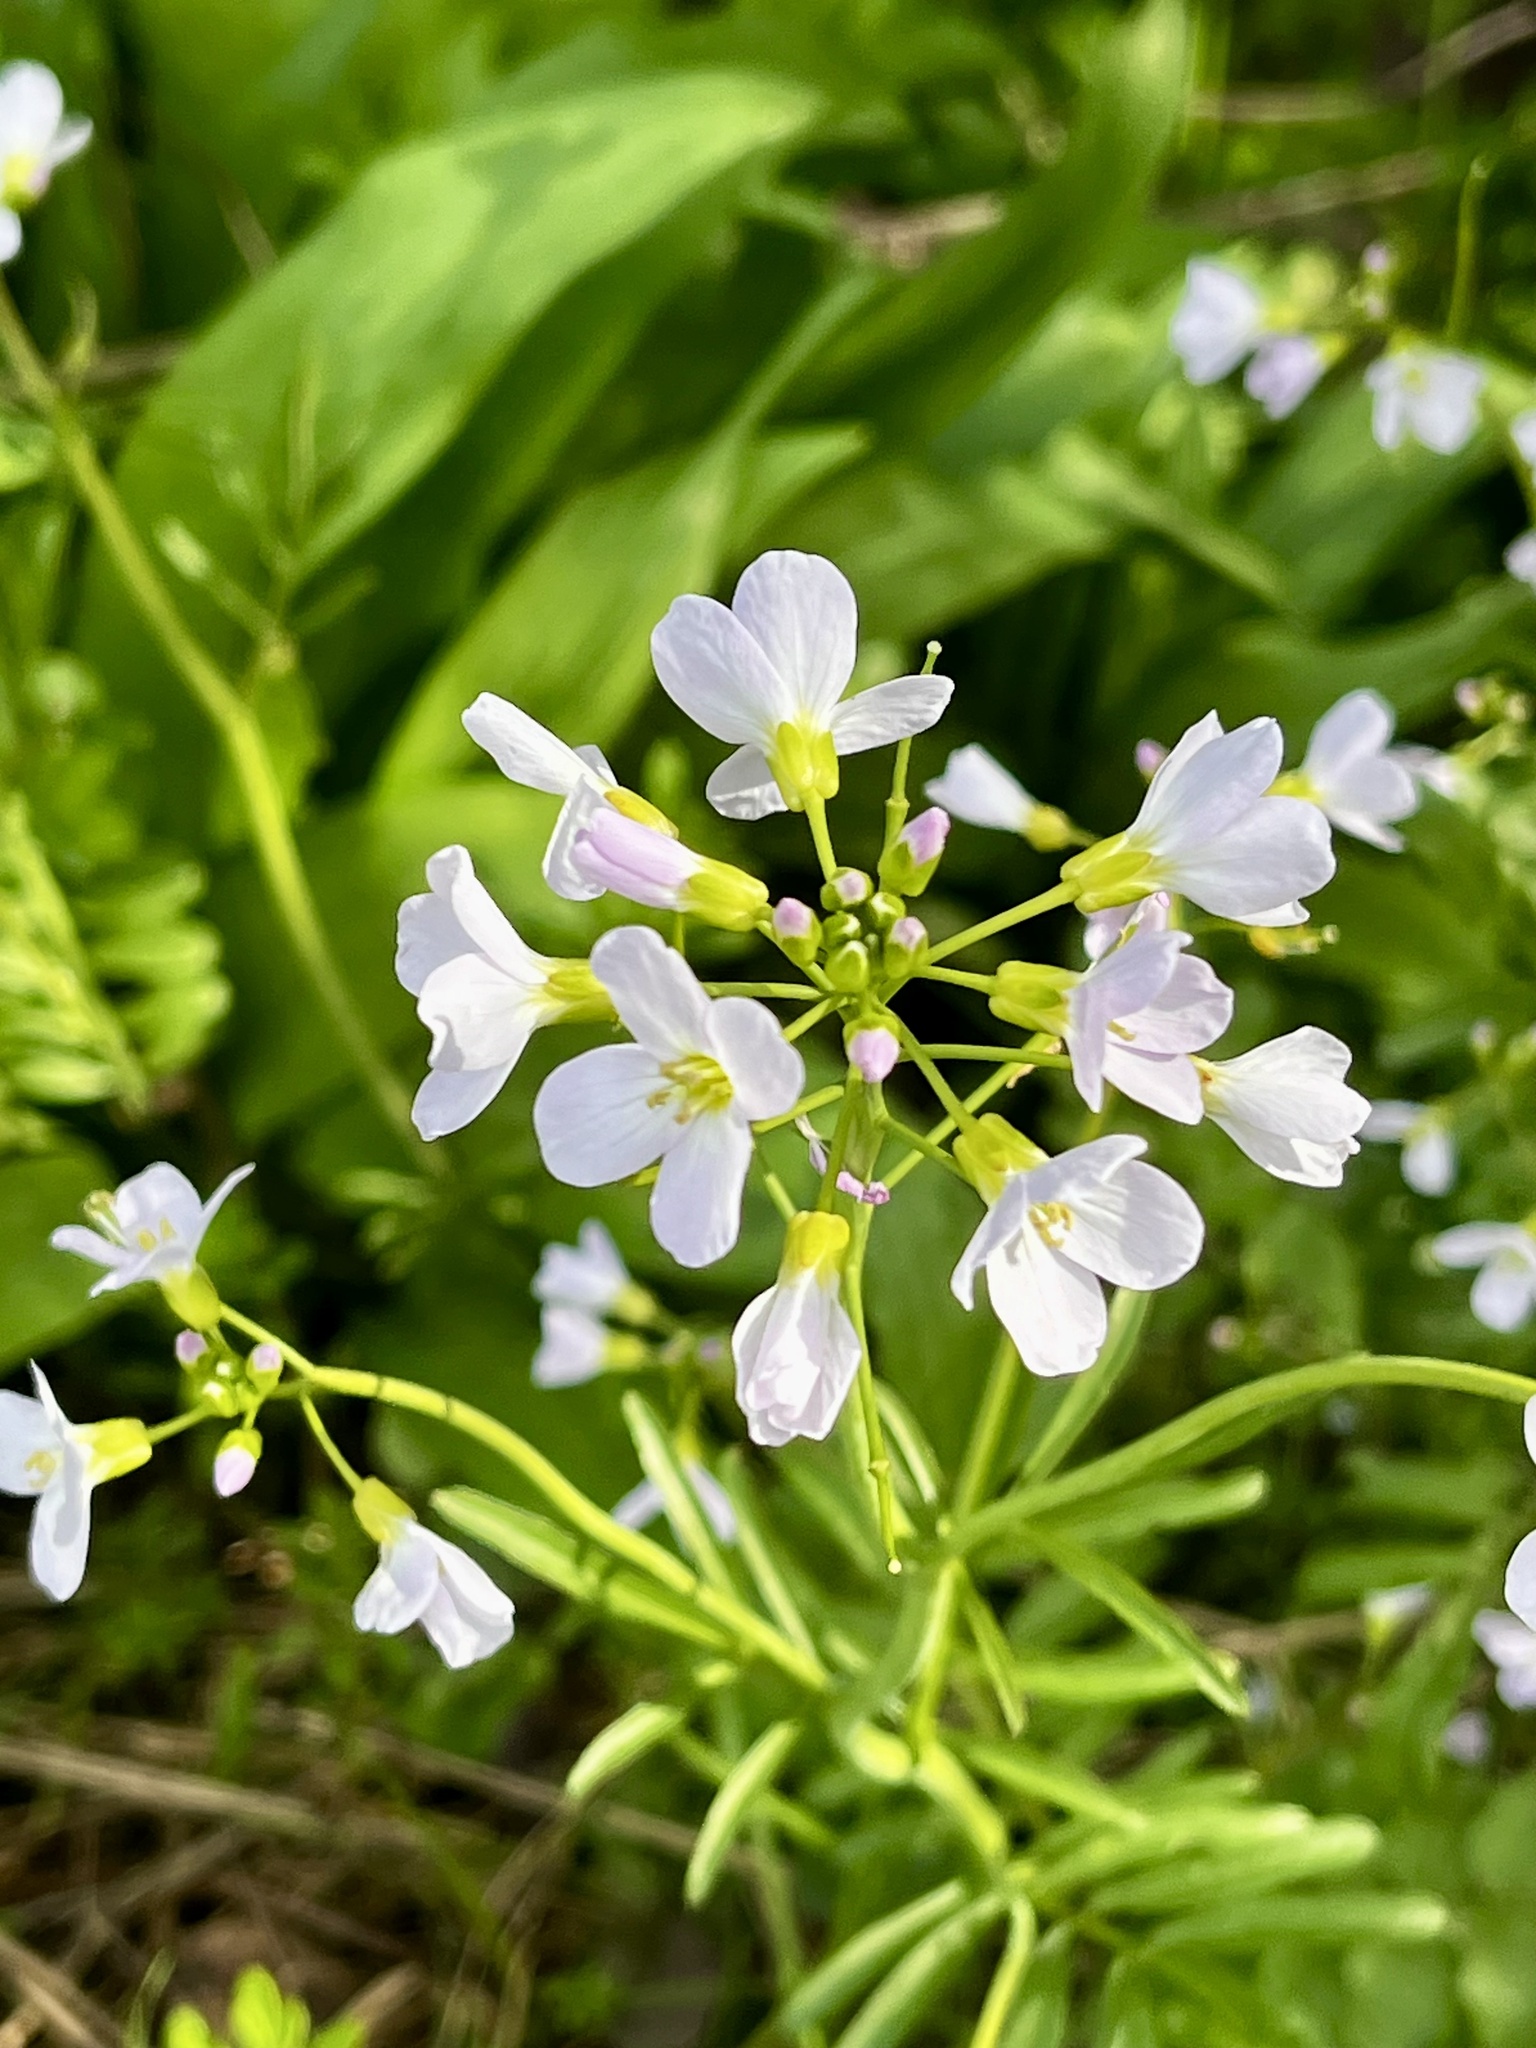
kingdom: Plantae
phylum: Tracheophyta
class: Magnoliopsida
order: Brassicales
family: Brassicaceae
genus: Cardamine
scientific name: Cardamine pratensis
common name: Cuckoo flower
